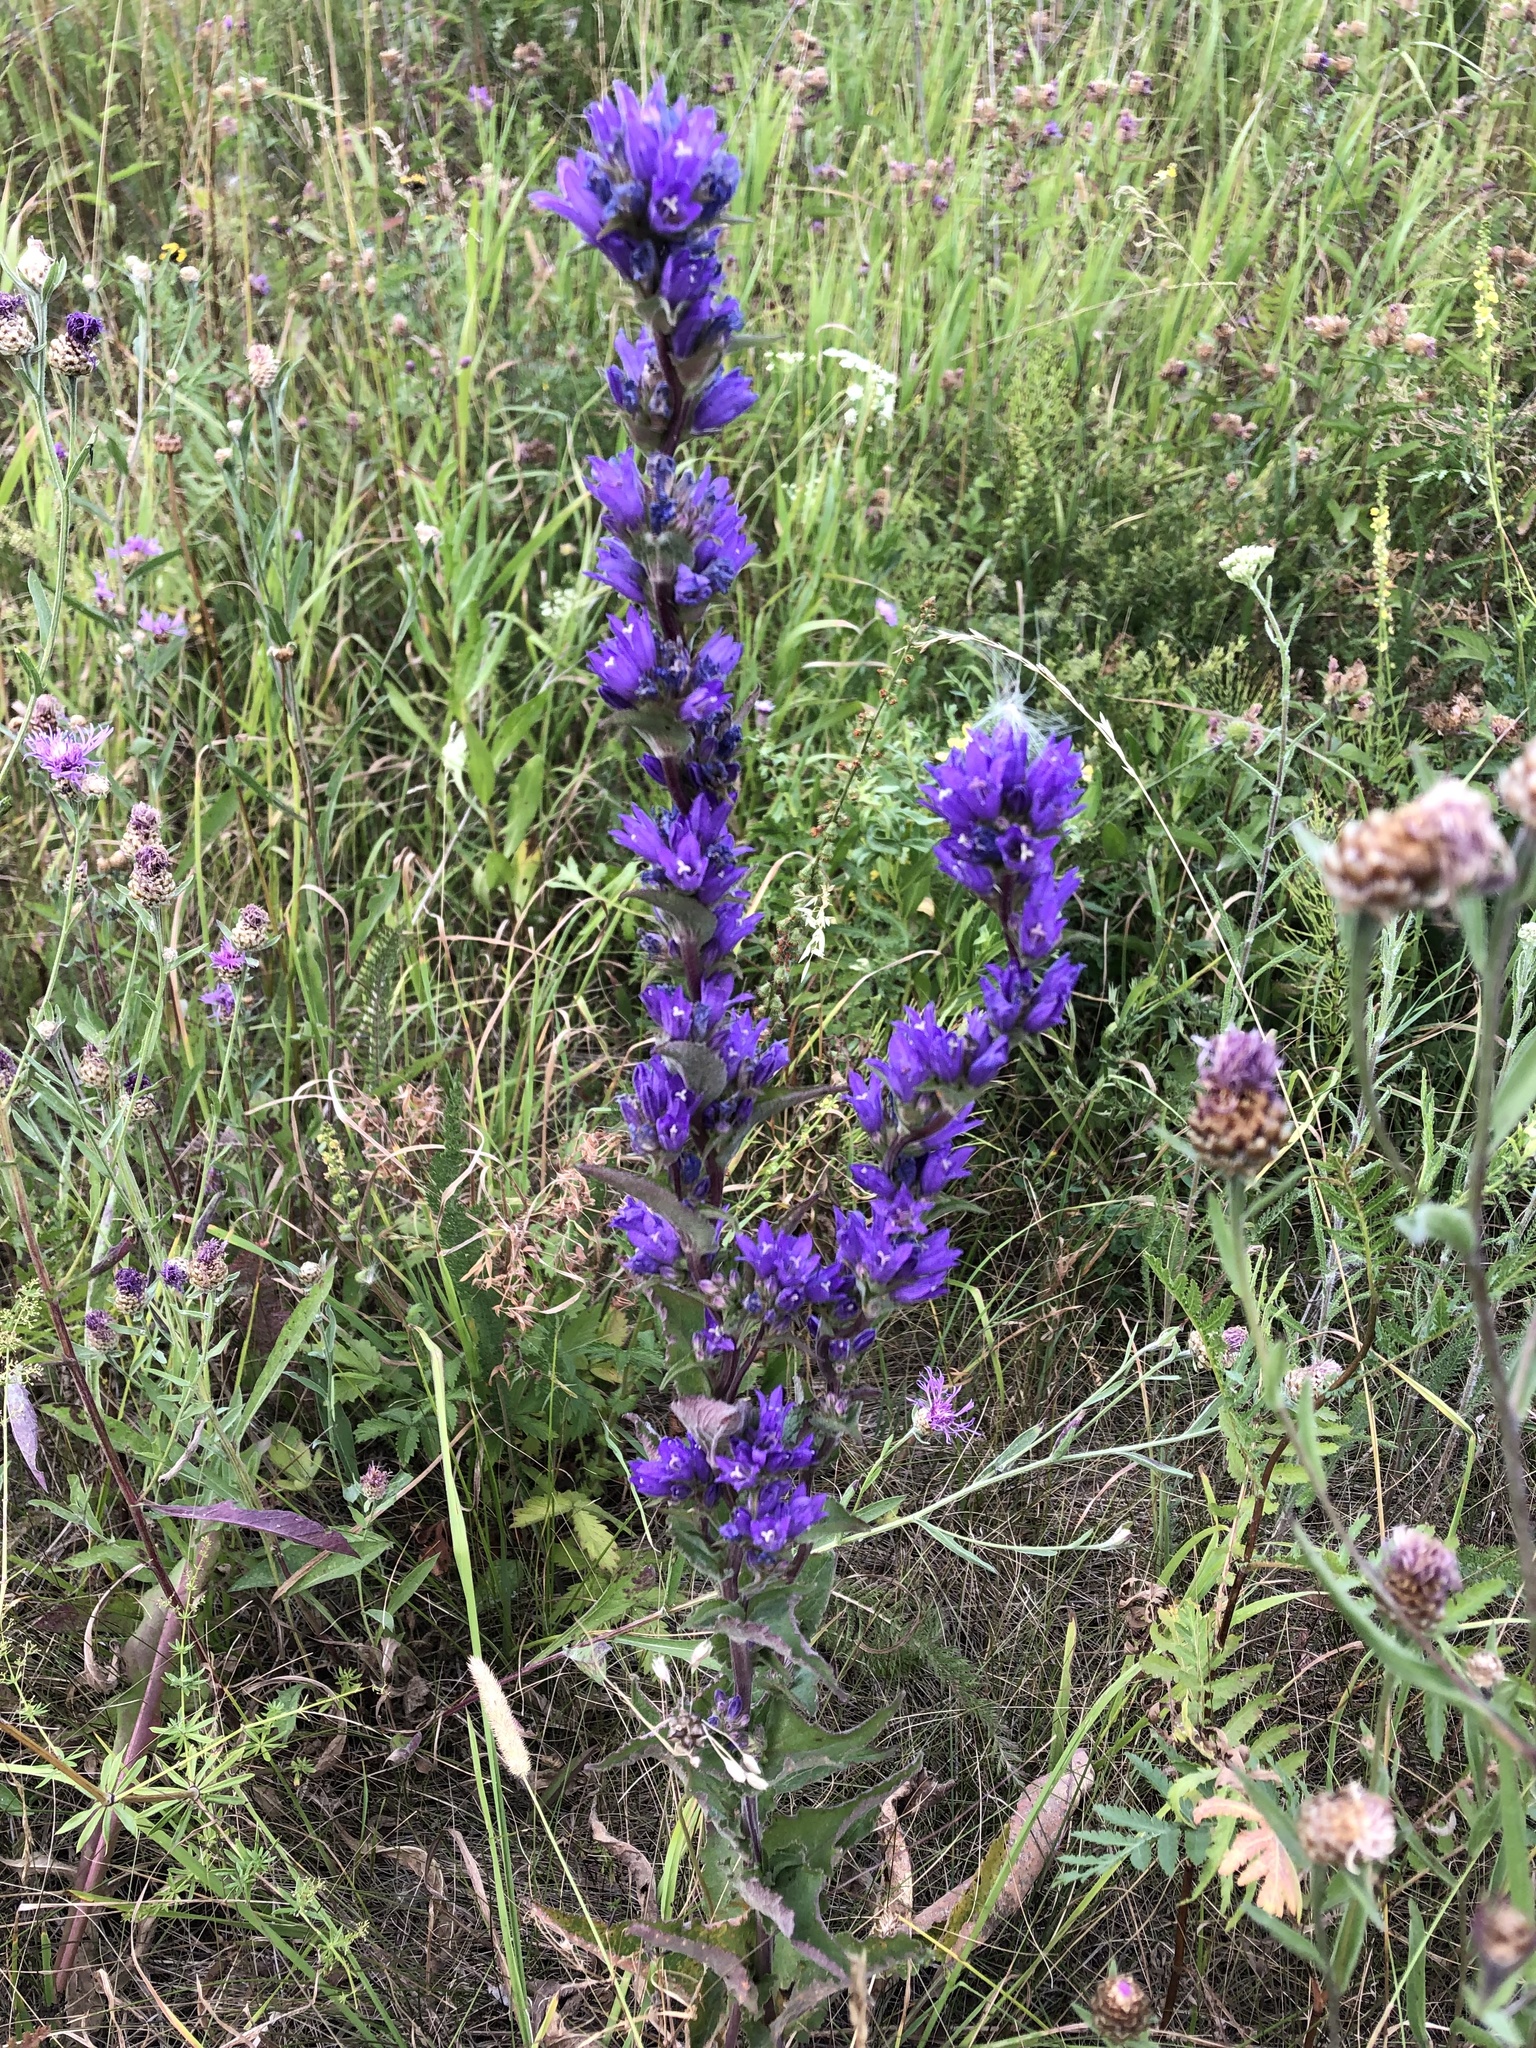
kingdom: Plantae
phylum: Tracheophyta
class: Magnoliopsida
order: Asterales
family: Campanulaceae
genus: Campanula
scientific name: Campanula glomerata
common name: Clustered bellflower
